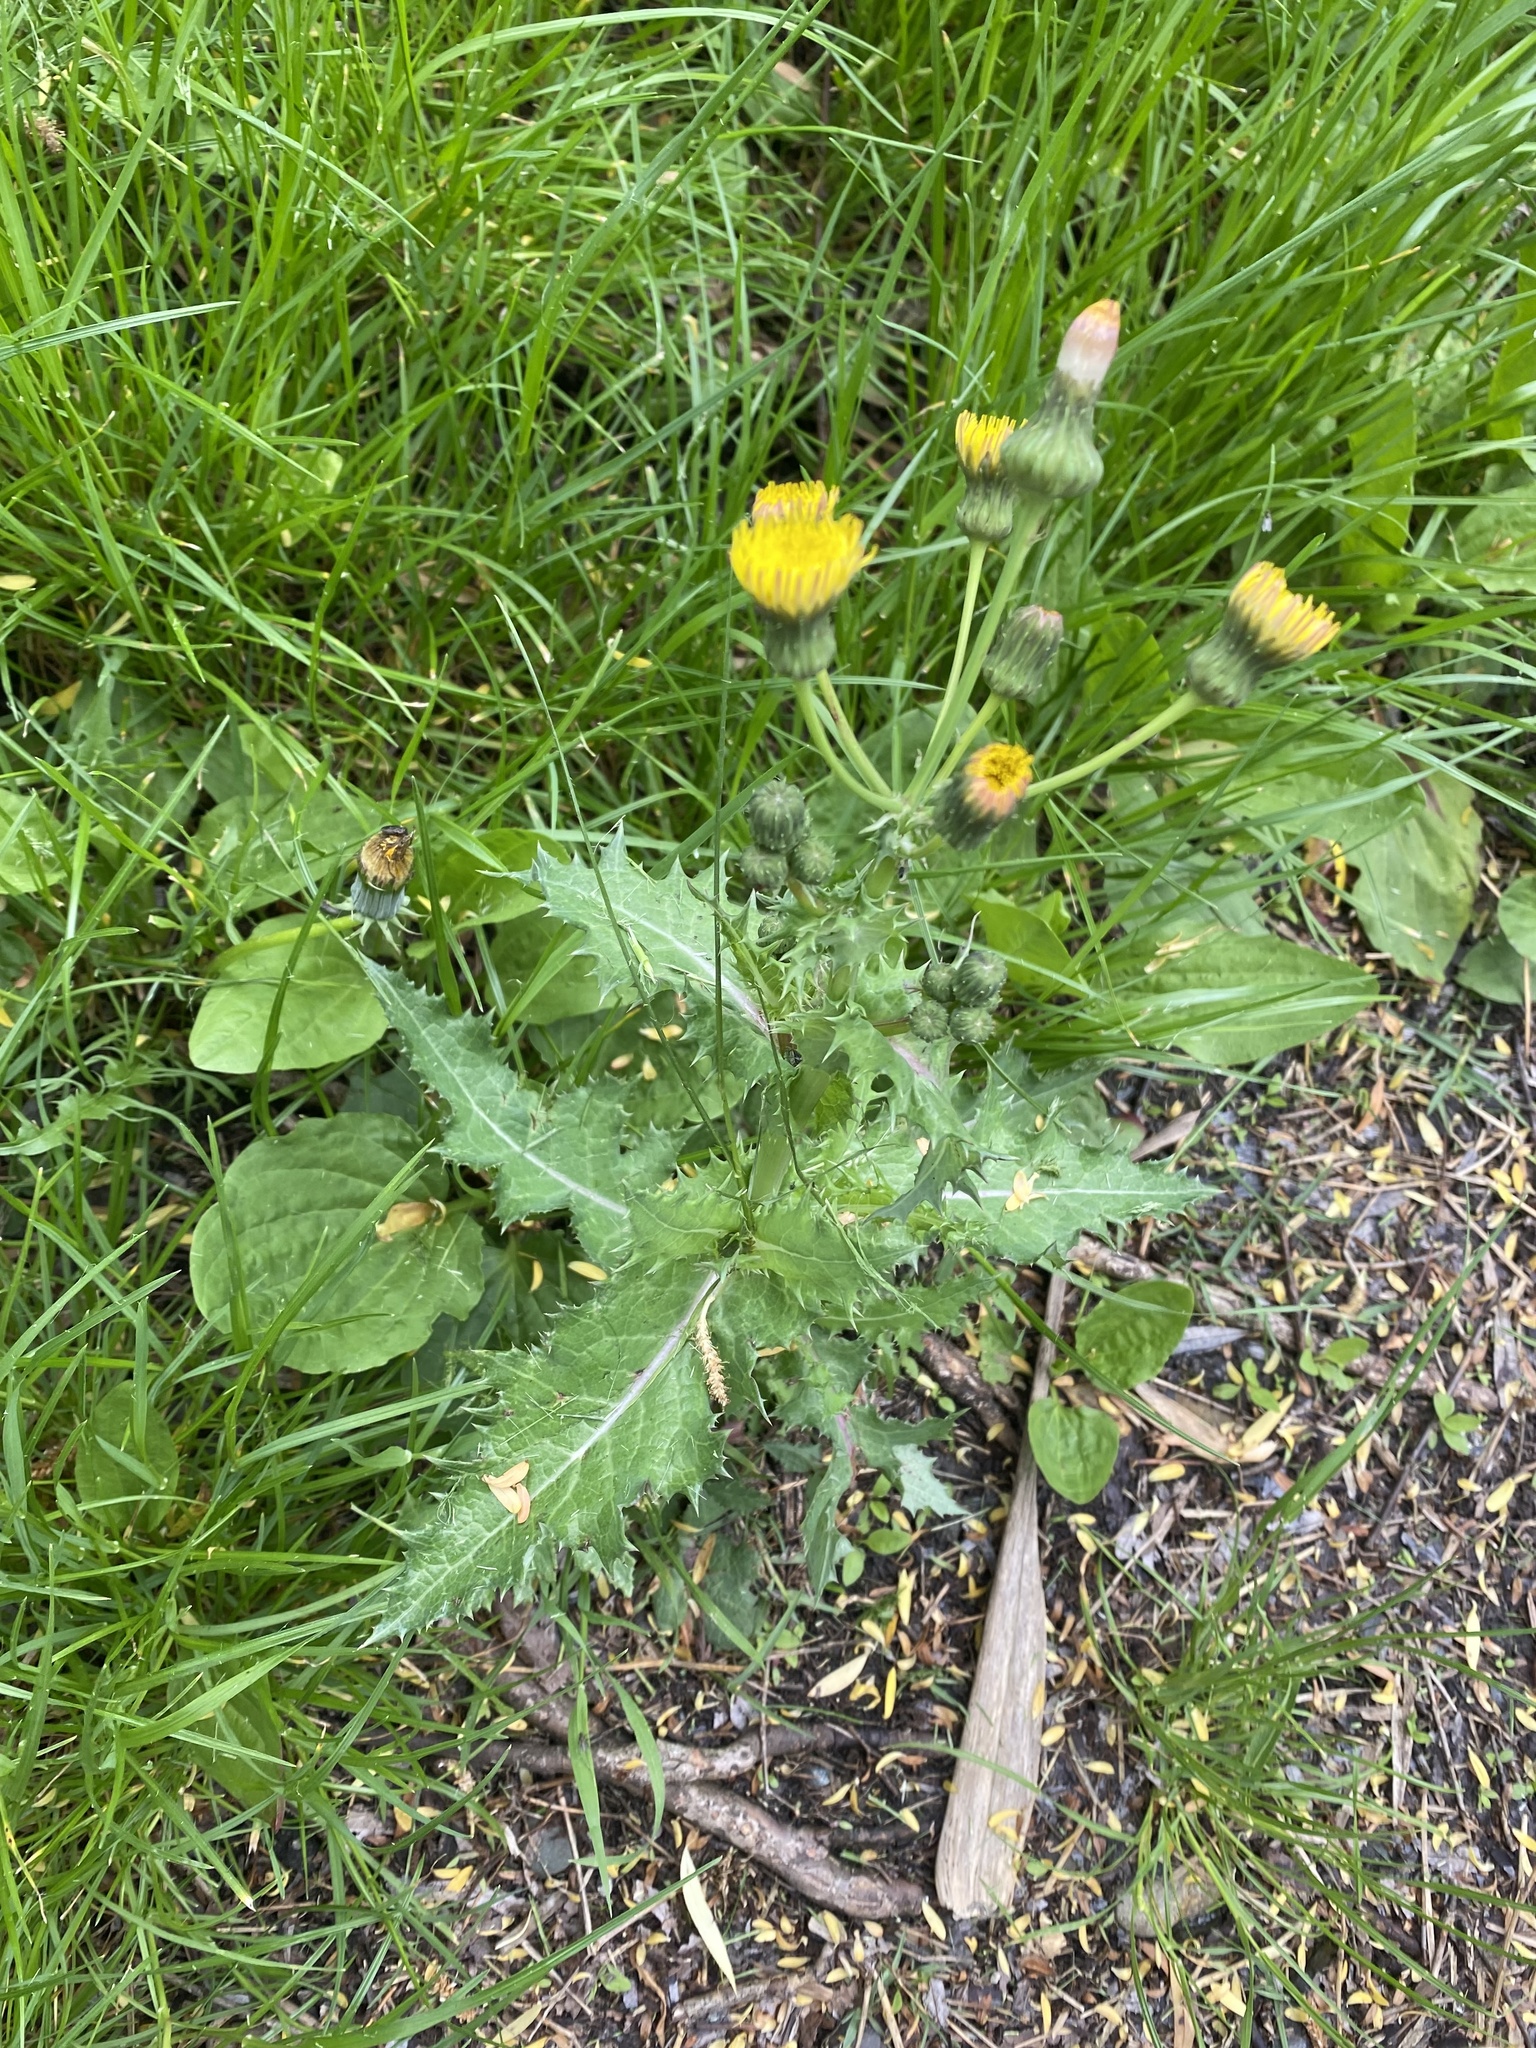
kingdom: Plantae
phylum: Tracheophyta
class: Magnoliopsida
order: Asterales
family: Asteraceae
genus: Sonchus
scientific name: Sonchus asper
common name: Prickly sow-thistle
